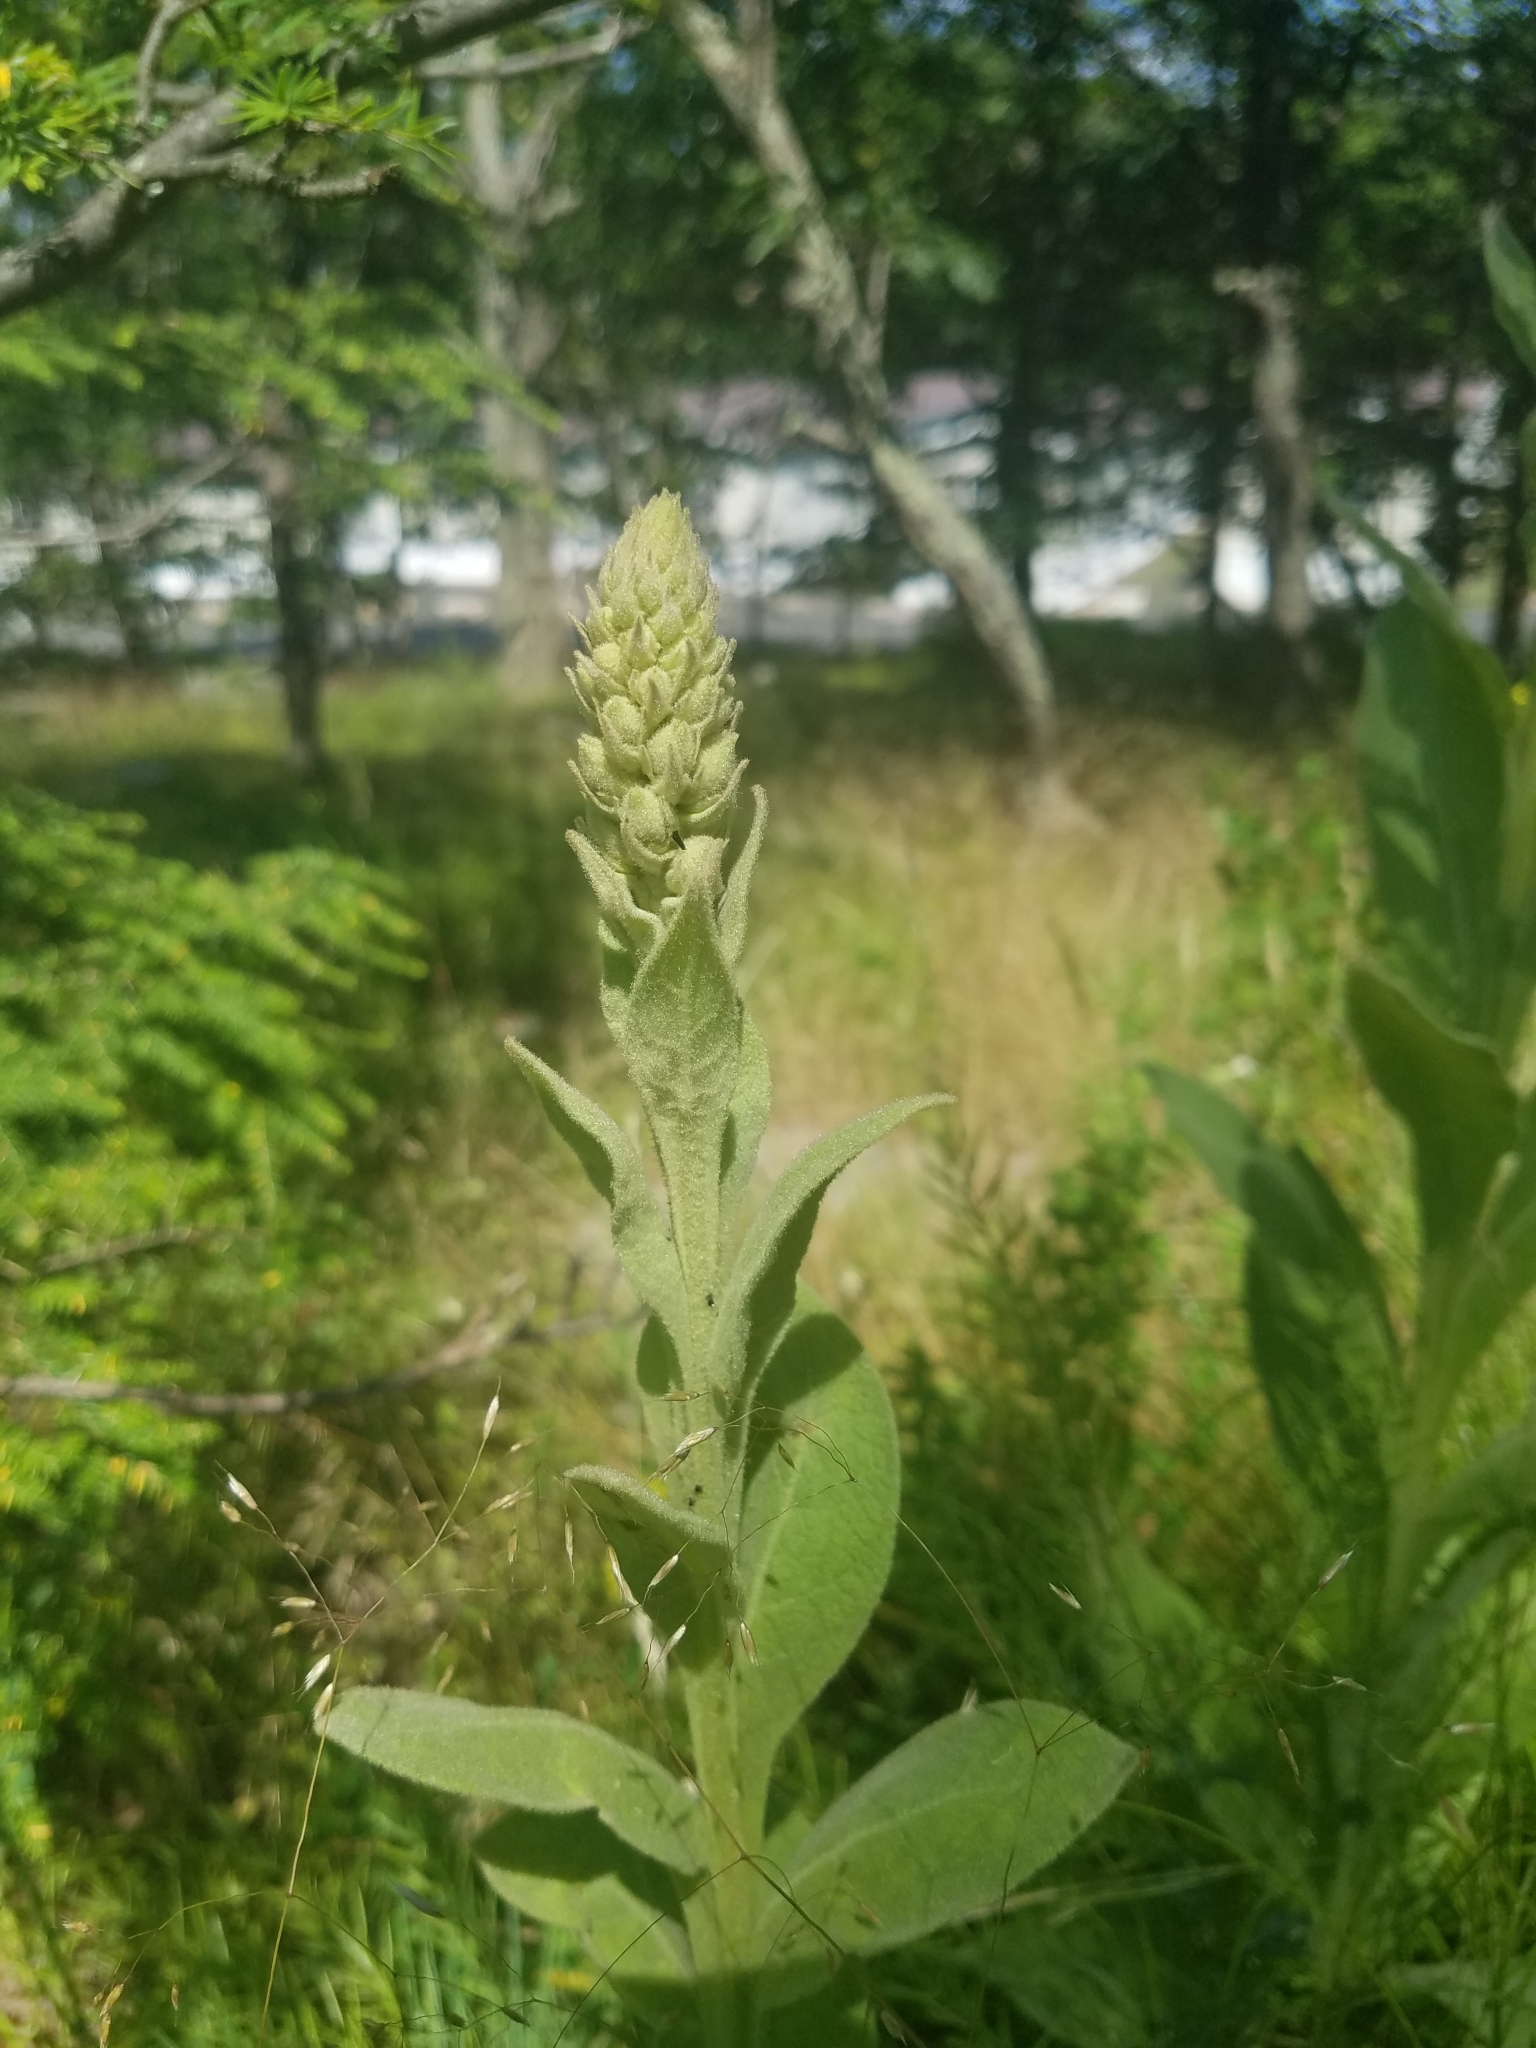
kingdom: Plantae
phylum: Tracheophyta
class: Magnoliopsida
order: Lamiales
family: Scrophulariaceae
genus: Verbascum
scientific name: Verbascum thapsus
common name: Common mullein
